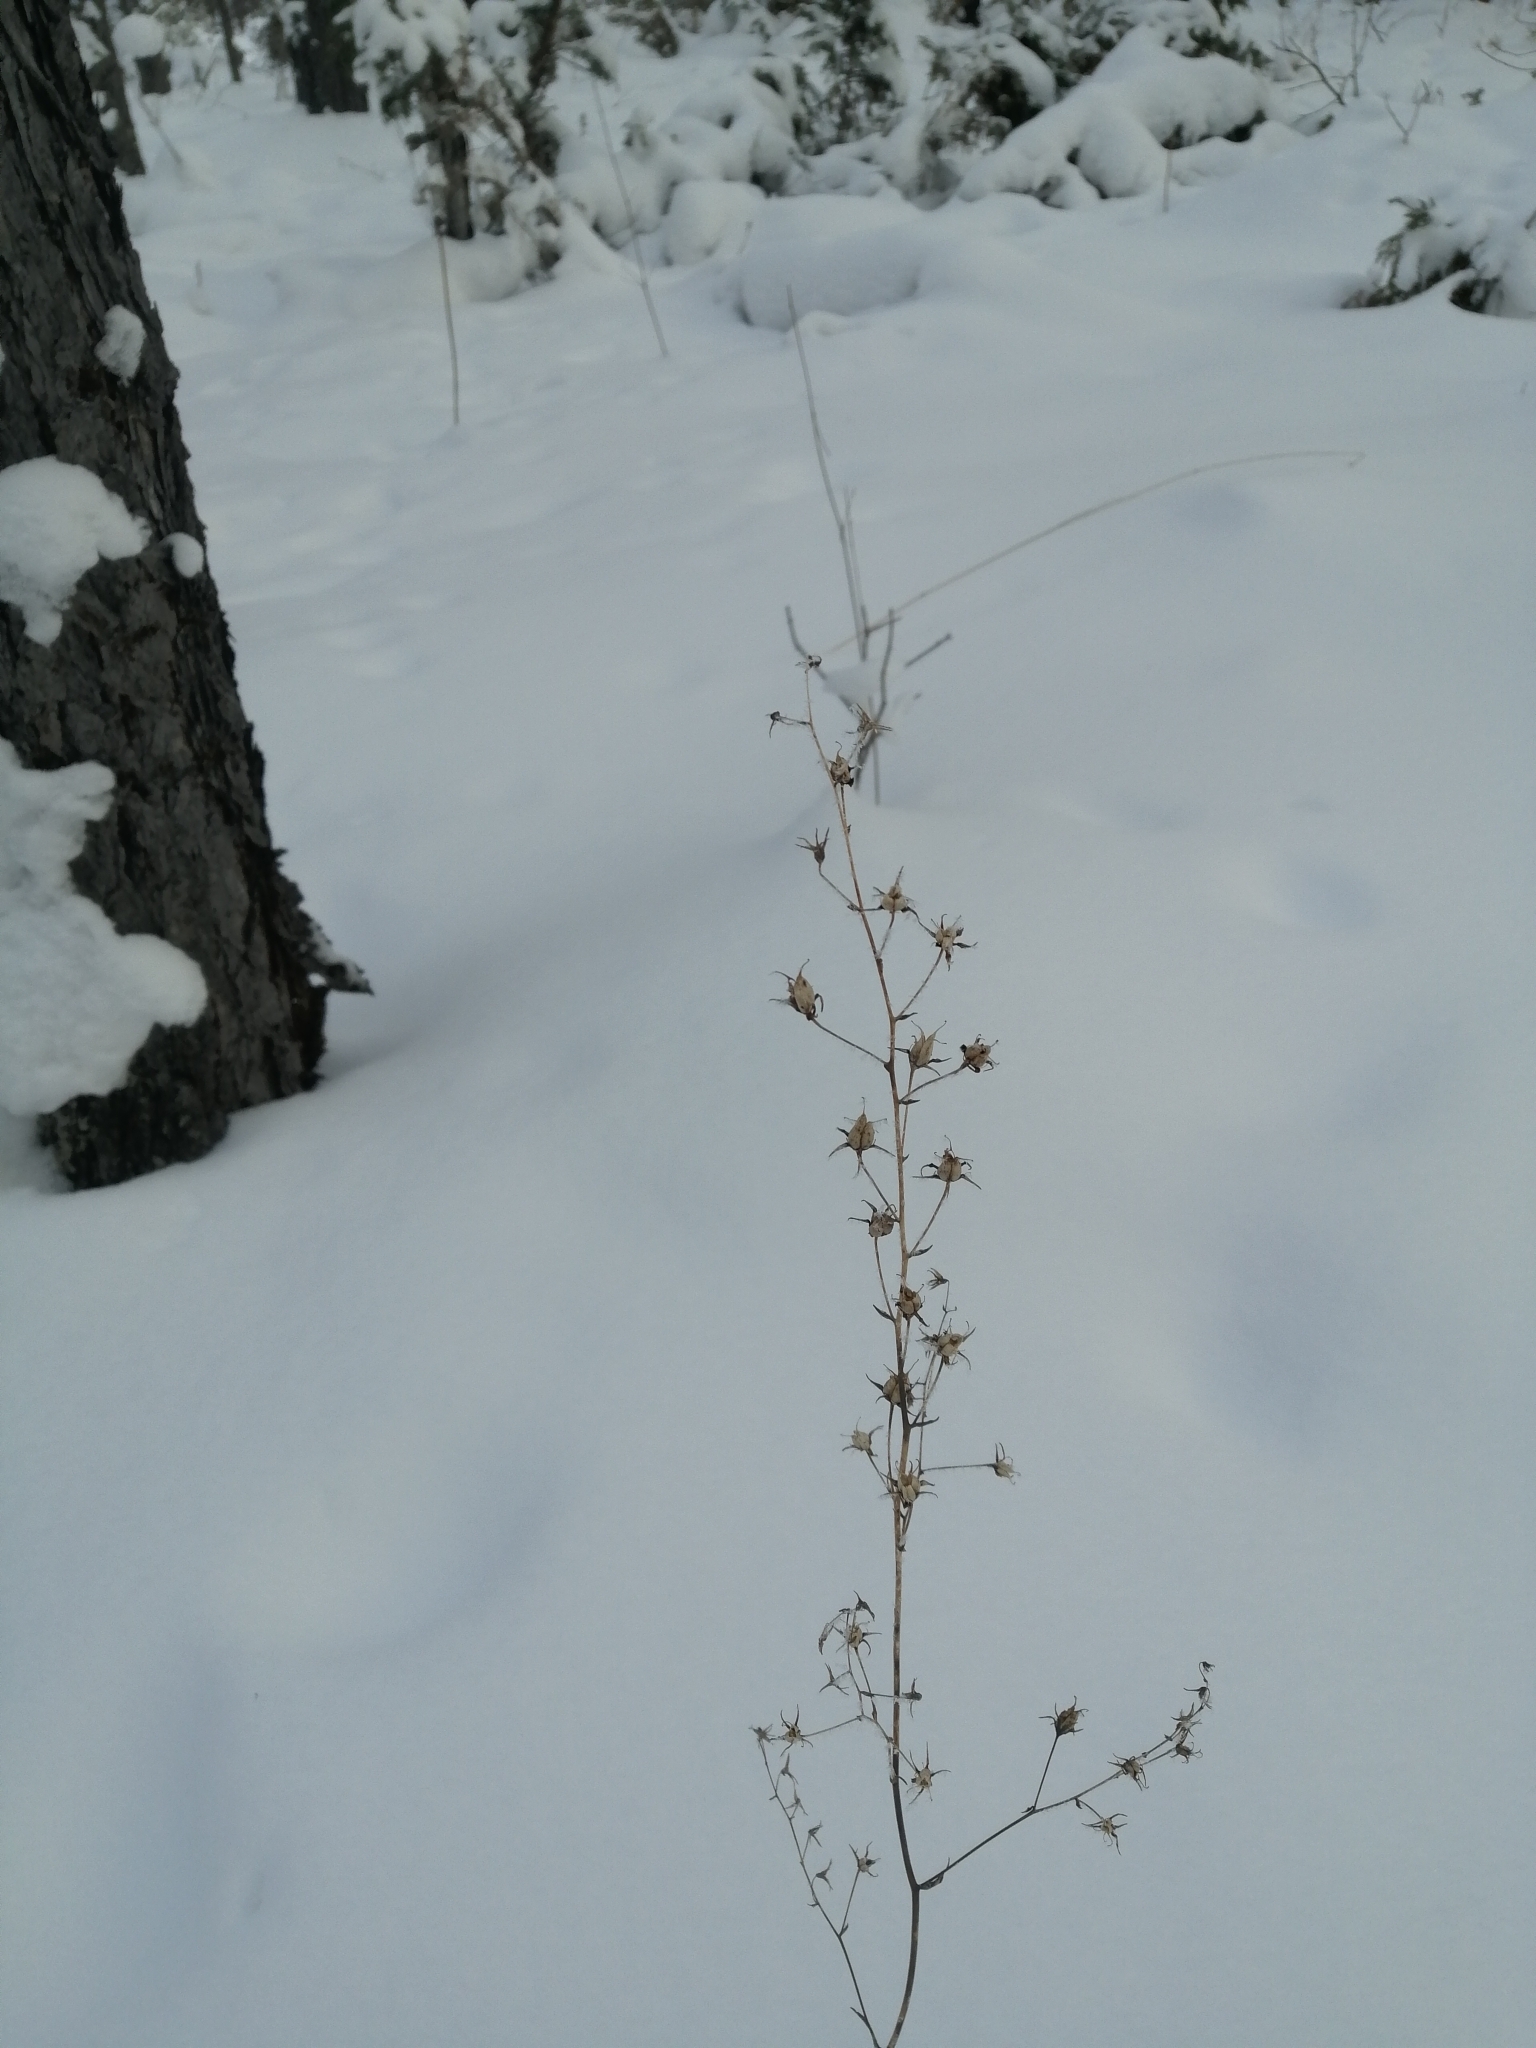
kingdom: Plantae
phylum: Tracheophyta
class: Liliopsida
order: Liliales
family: Melanthiaceae
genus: Anticlea
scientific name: Anticlea sibirica
